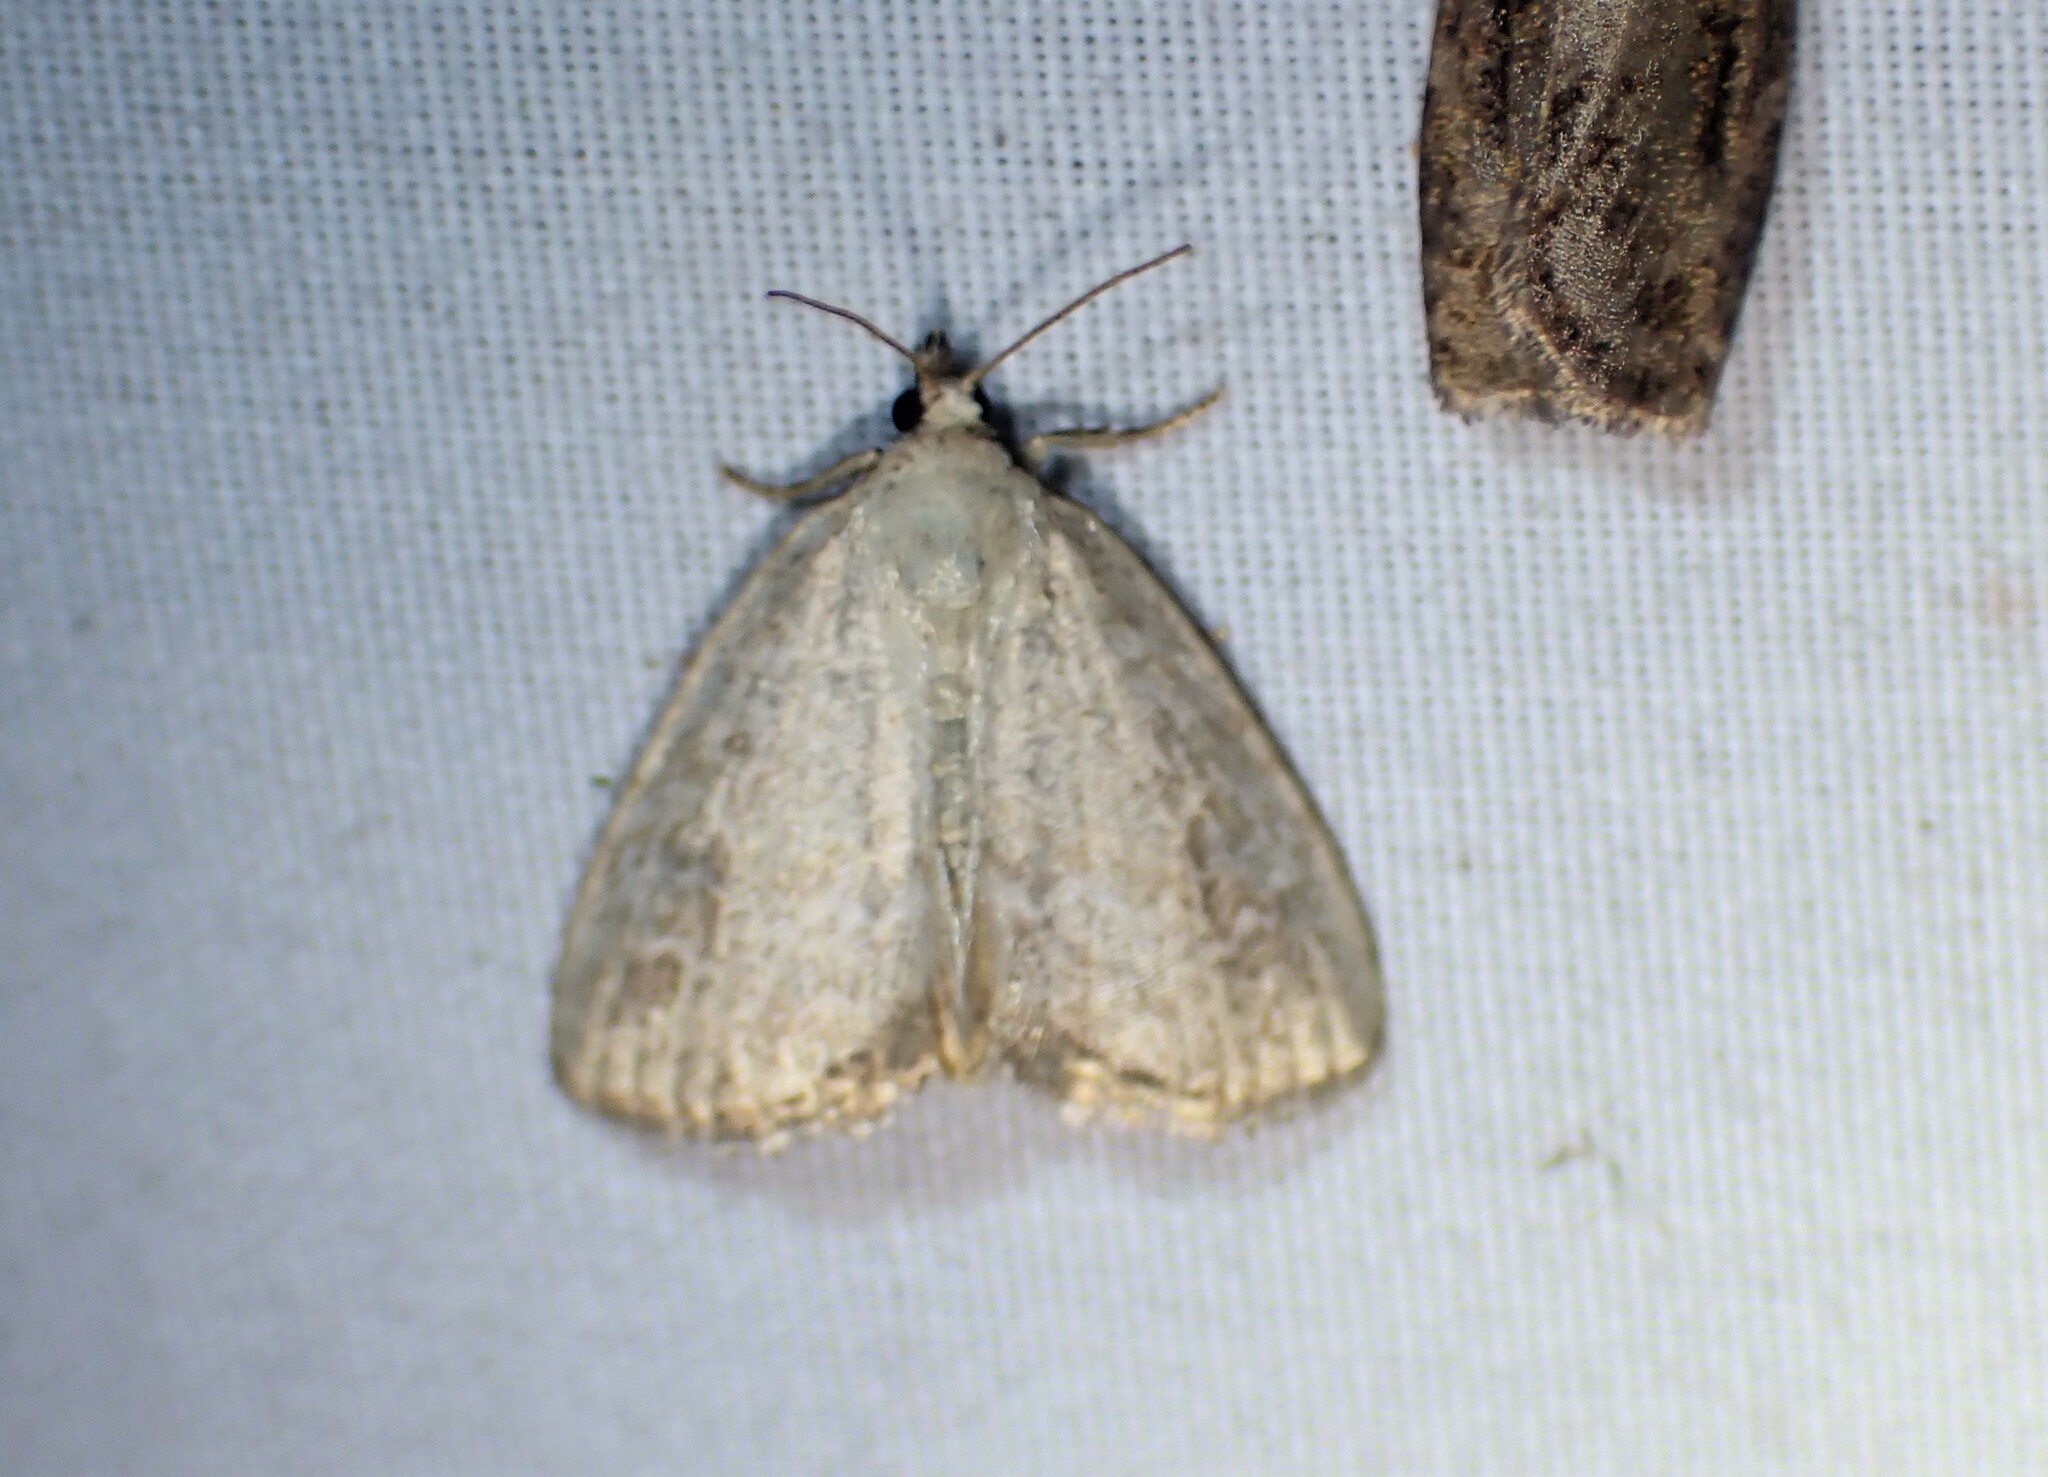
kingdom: Animalia
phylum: Arthropoda
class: Insecta
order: Lepidoptera
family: Noctuidae
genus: Protodeltote
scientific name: Protodeltote albidula
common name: Pale glyph
